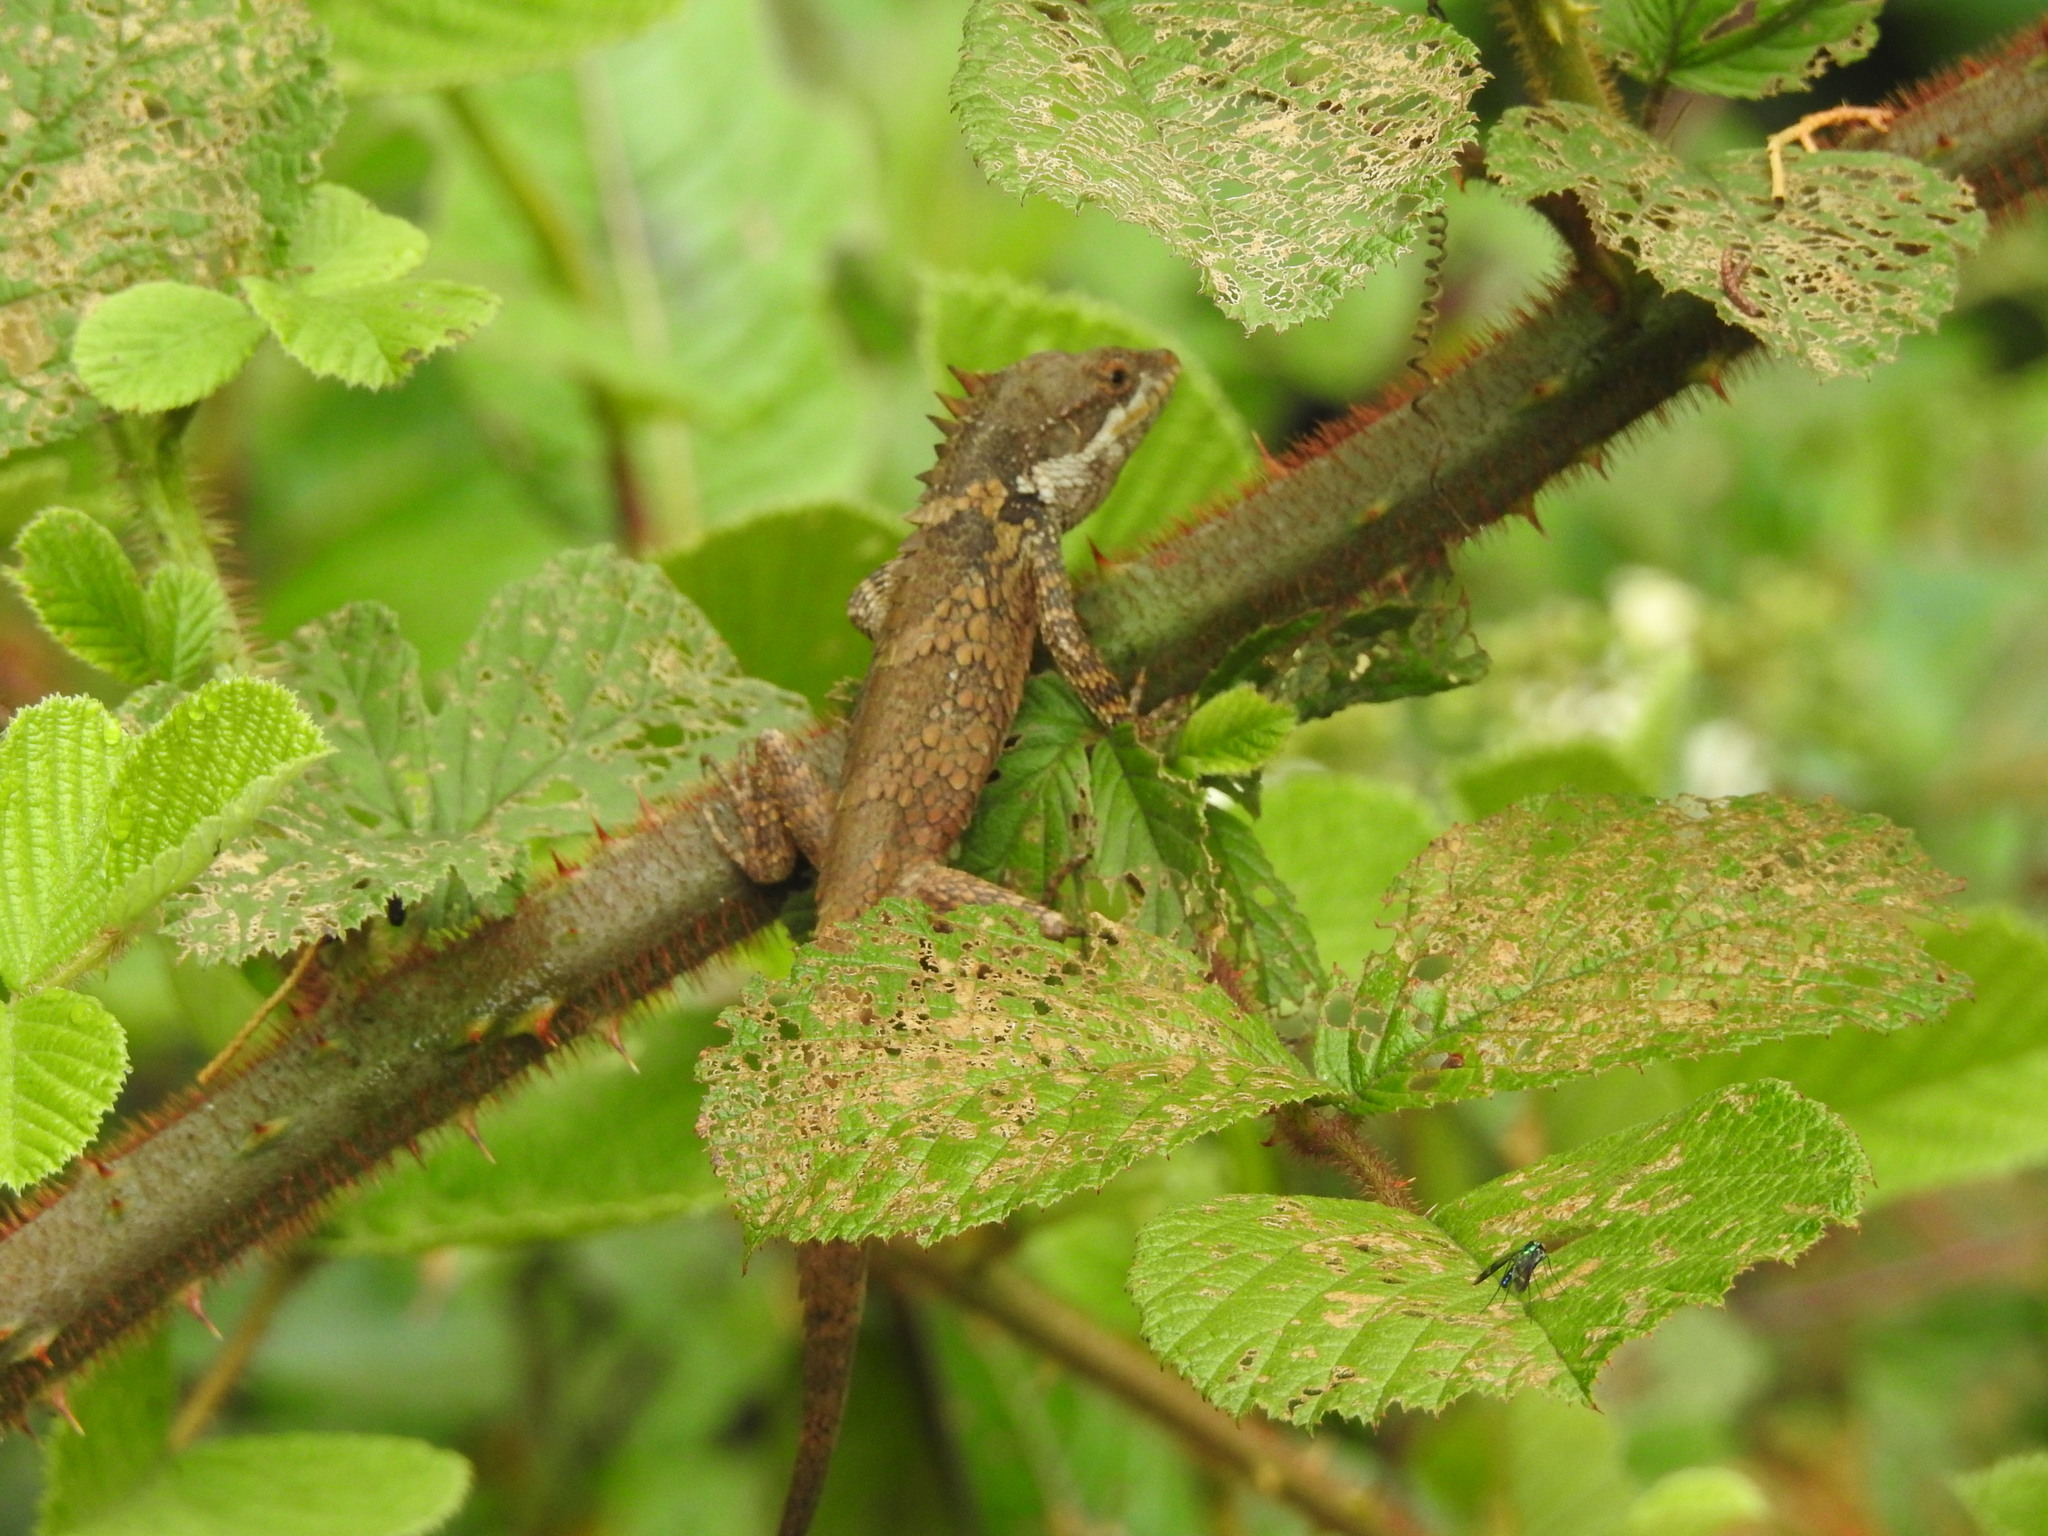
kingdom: Animalia
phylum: Chordata
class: Squamata
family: Agamidae
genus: Salea
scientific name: Salea anamallayana
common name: Anaimalai spiny lizard
